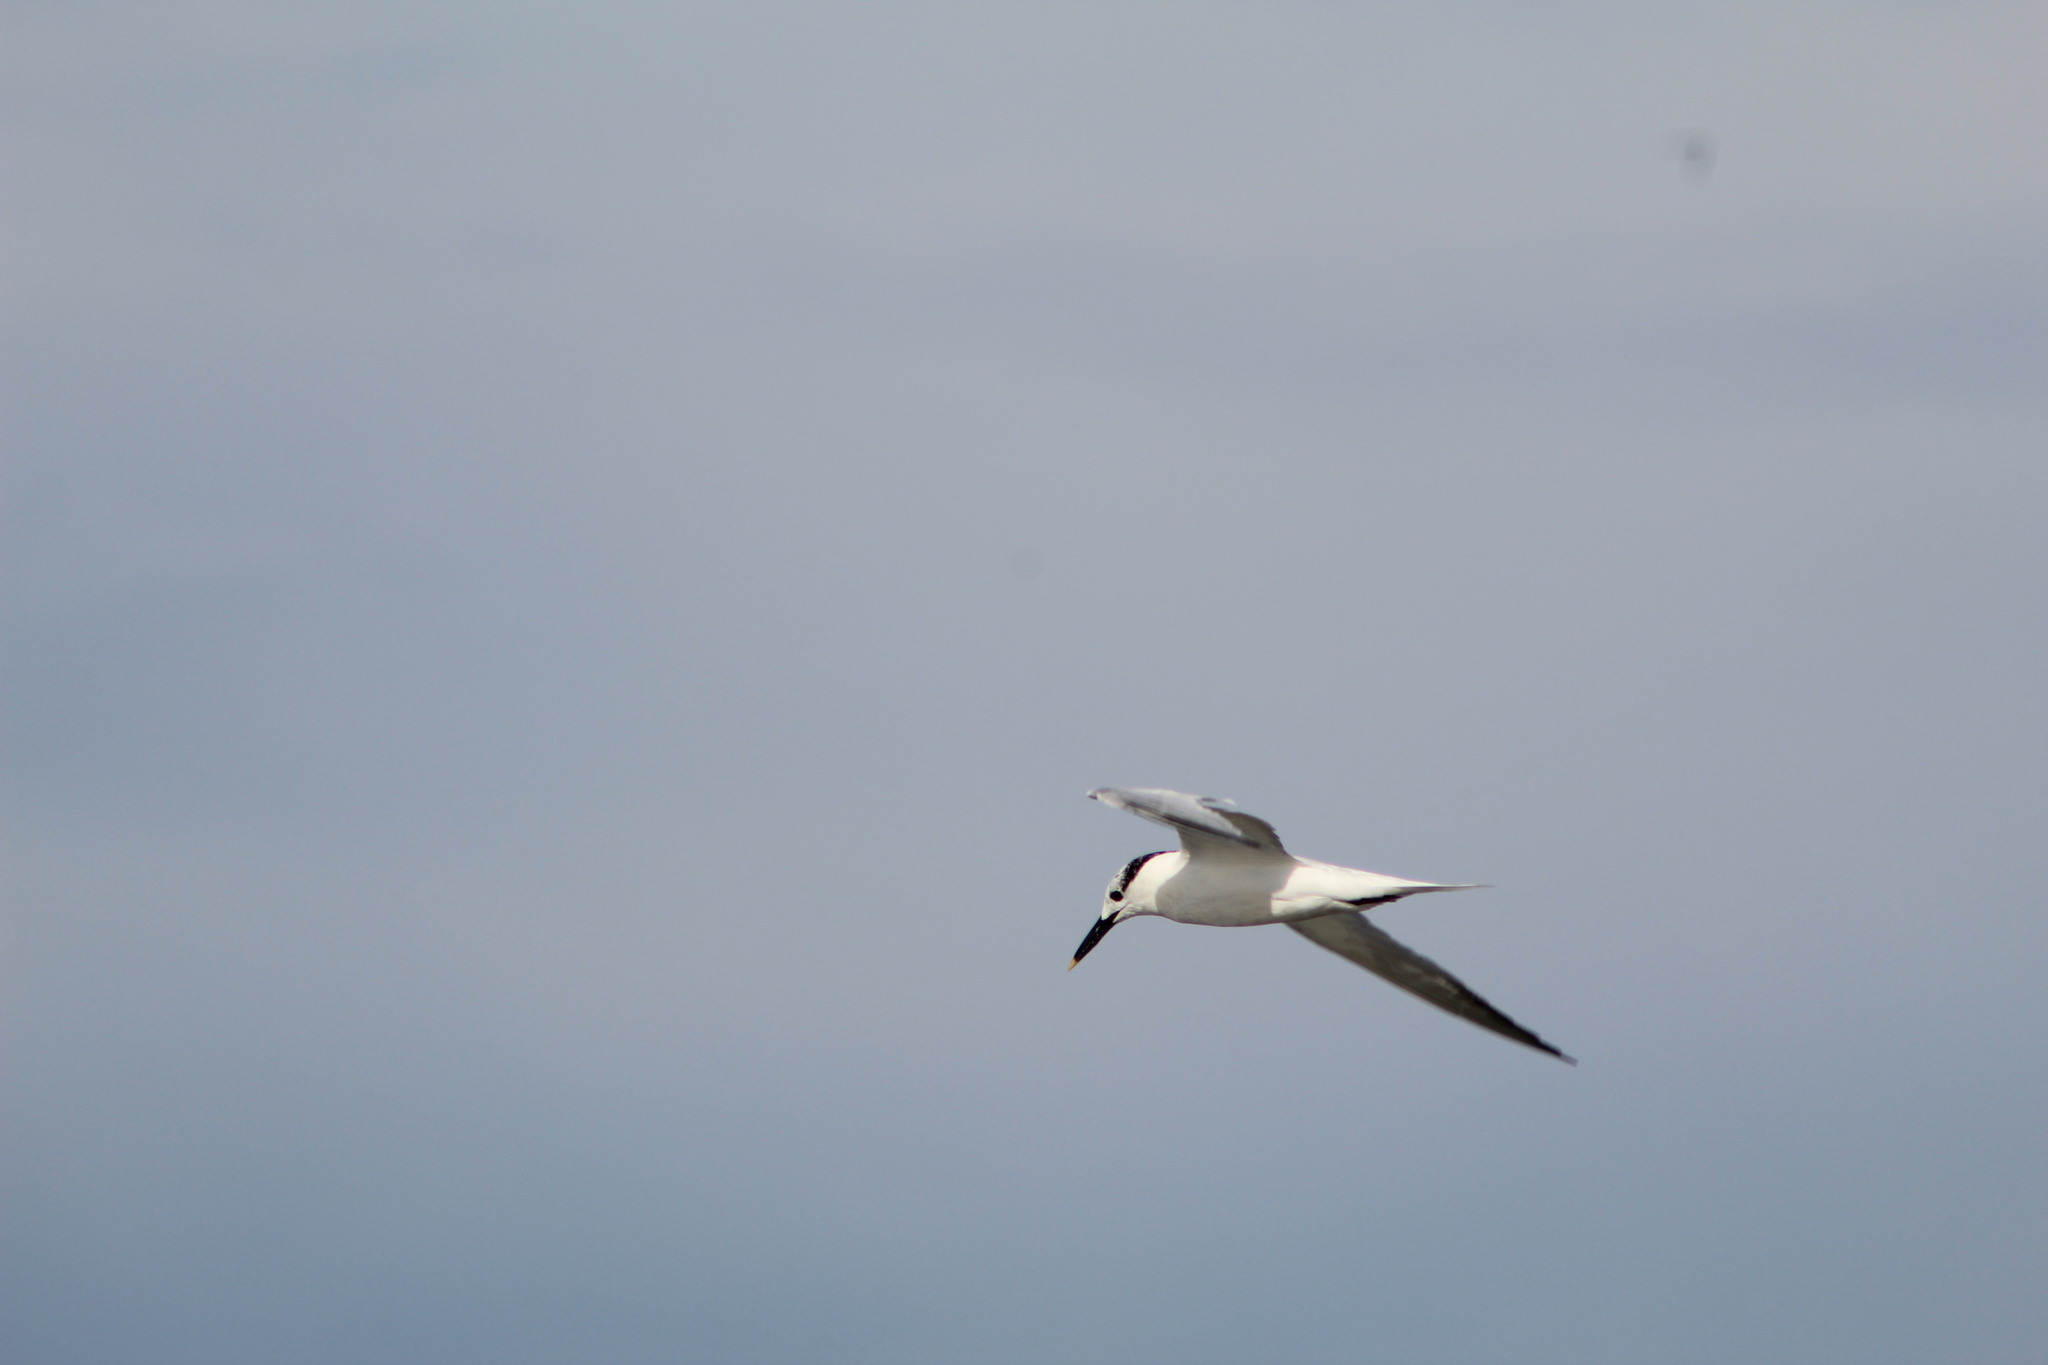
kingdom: Animalia
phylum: Chordata
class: Aves
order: Charadriiformes
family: Laridae
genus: Thalasseus
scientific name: Thalasseus sandvicensis
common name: Sandwich tern
